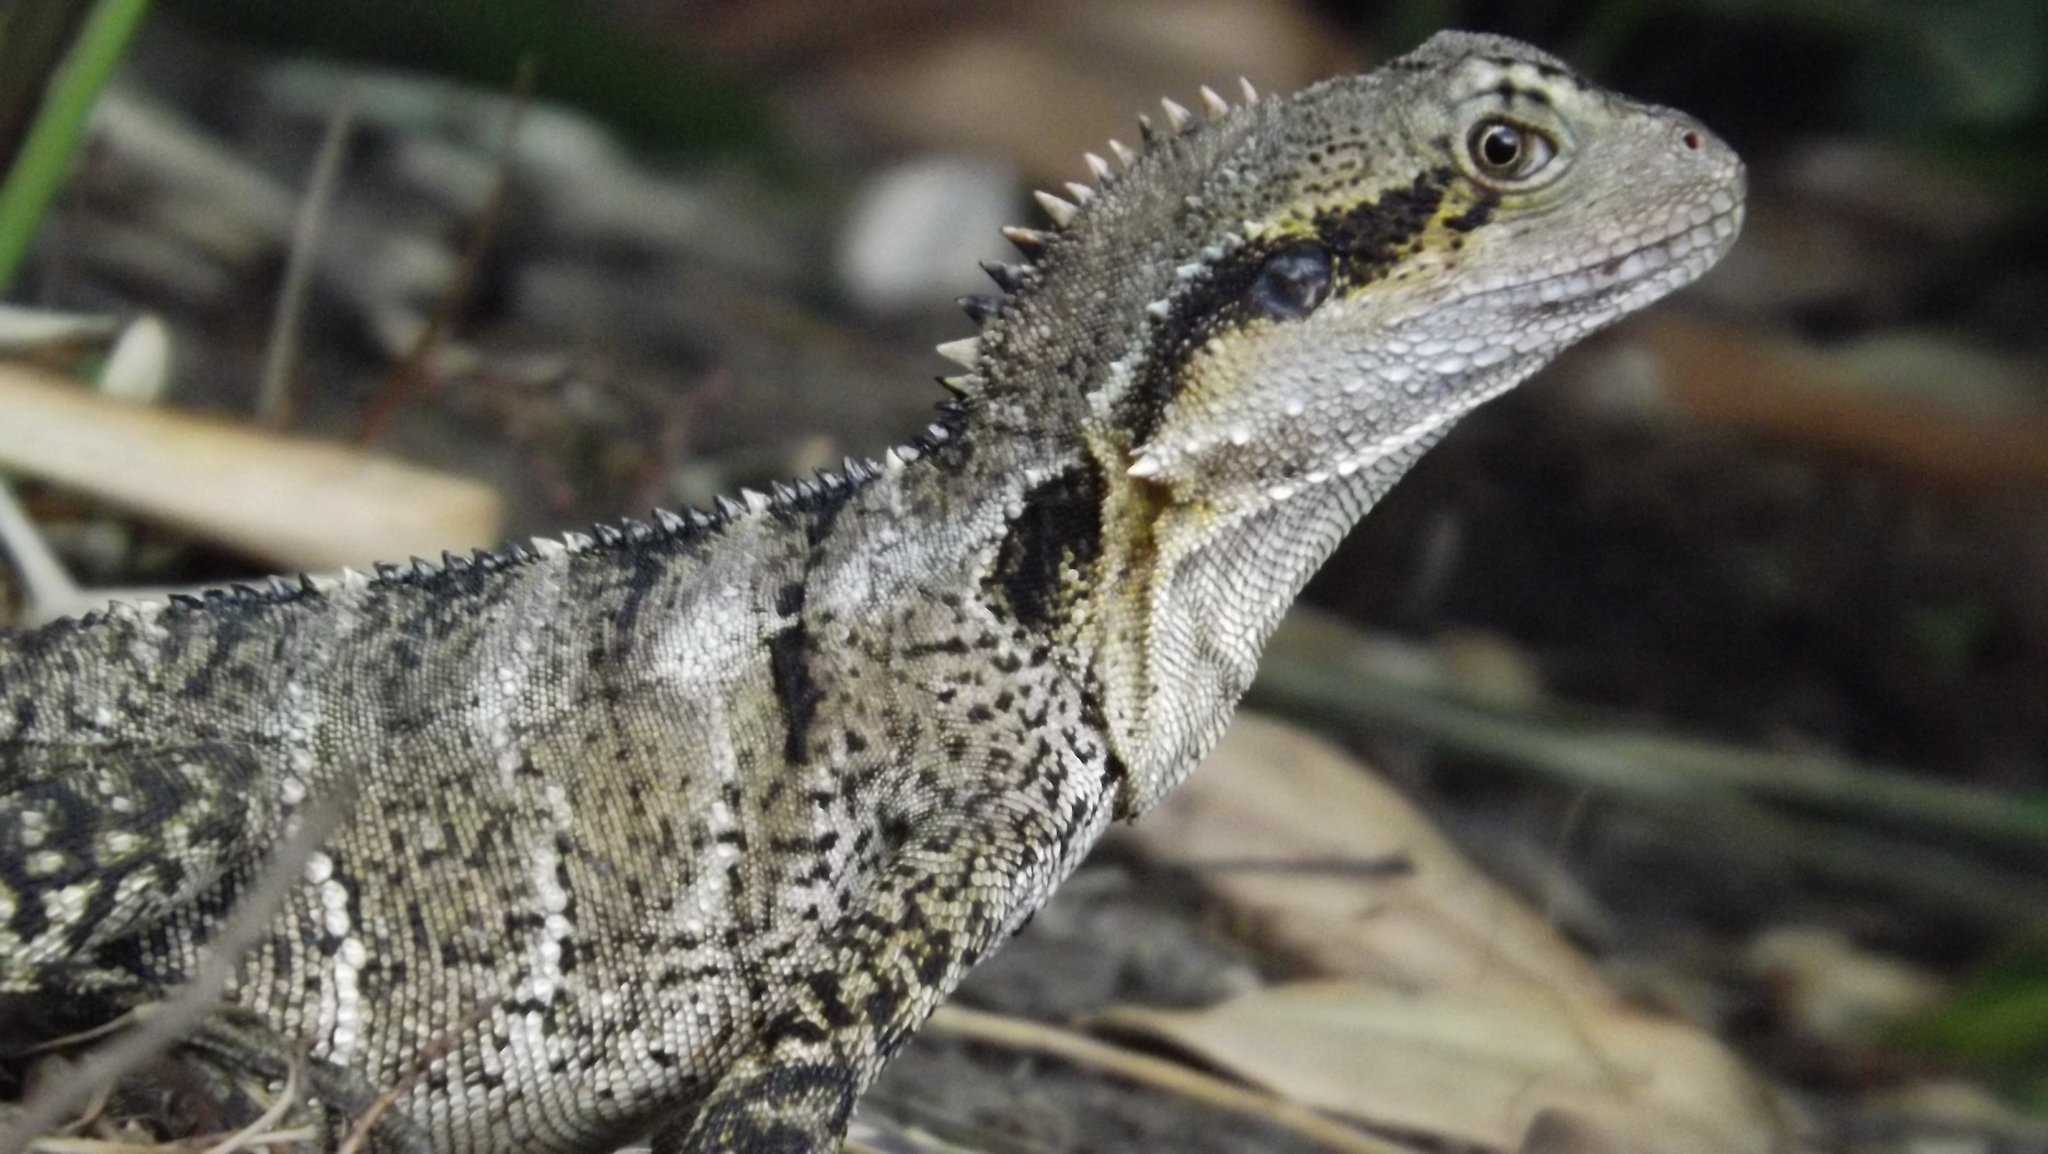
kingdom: Animalia
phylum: Chordata
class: Squamata
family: Agamidae
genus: Intellagama
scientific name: Intellagama lesueurii
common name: Eastern water dragon
